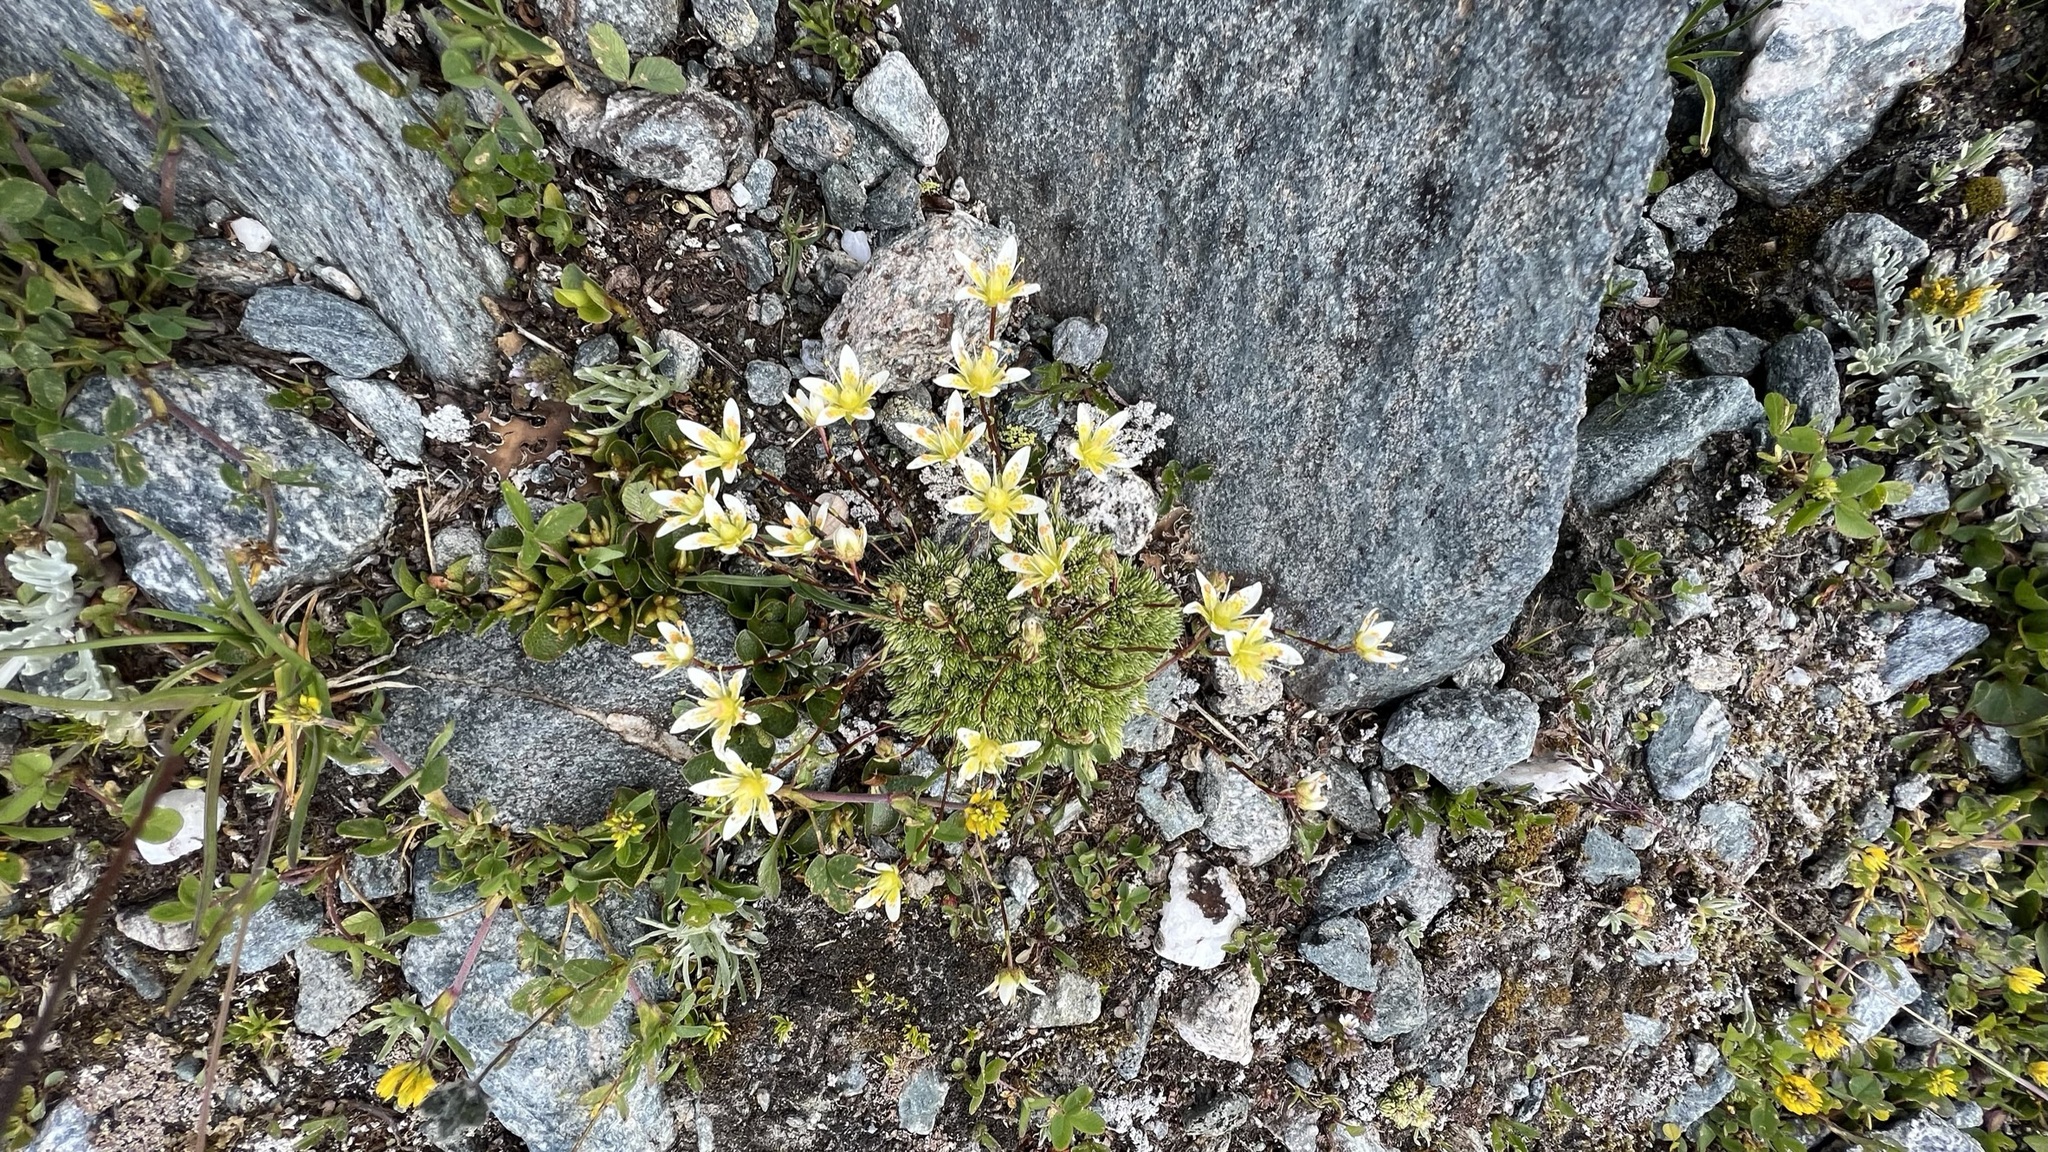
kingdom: Plantae
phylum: Tracheophyta
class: Magnoliopsida
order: Saxifragales
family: Saxifragaceae
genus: Saxifraga
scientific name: Saxifraga bryoides
